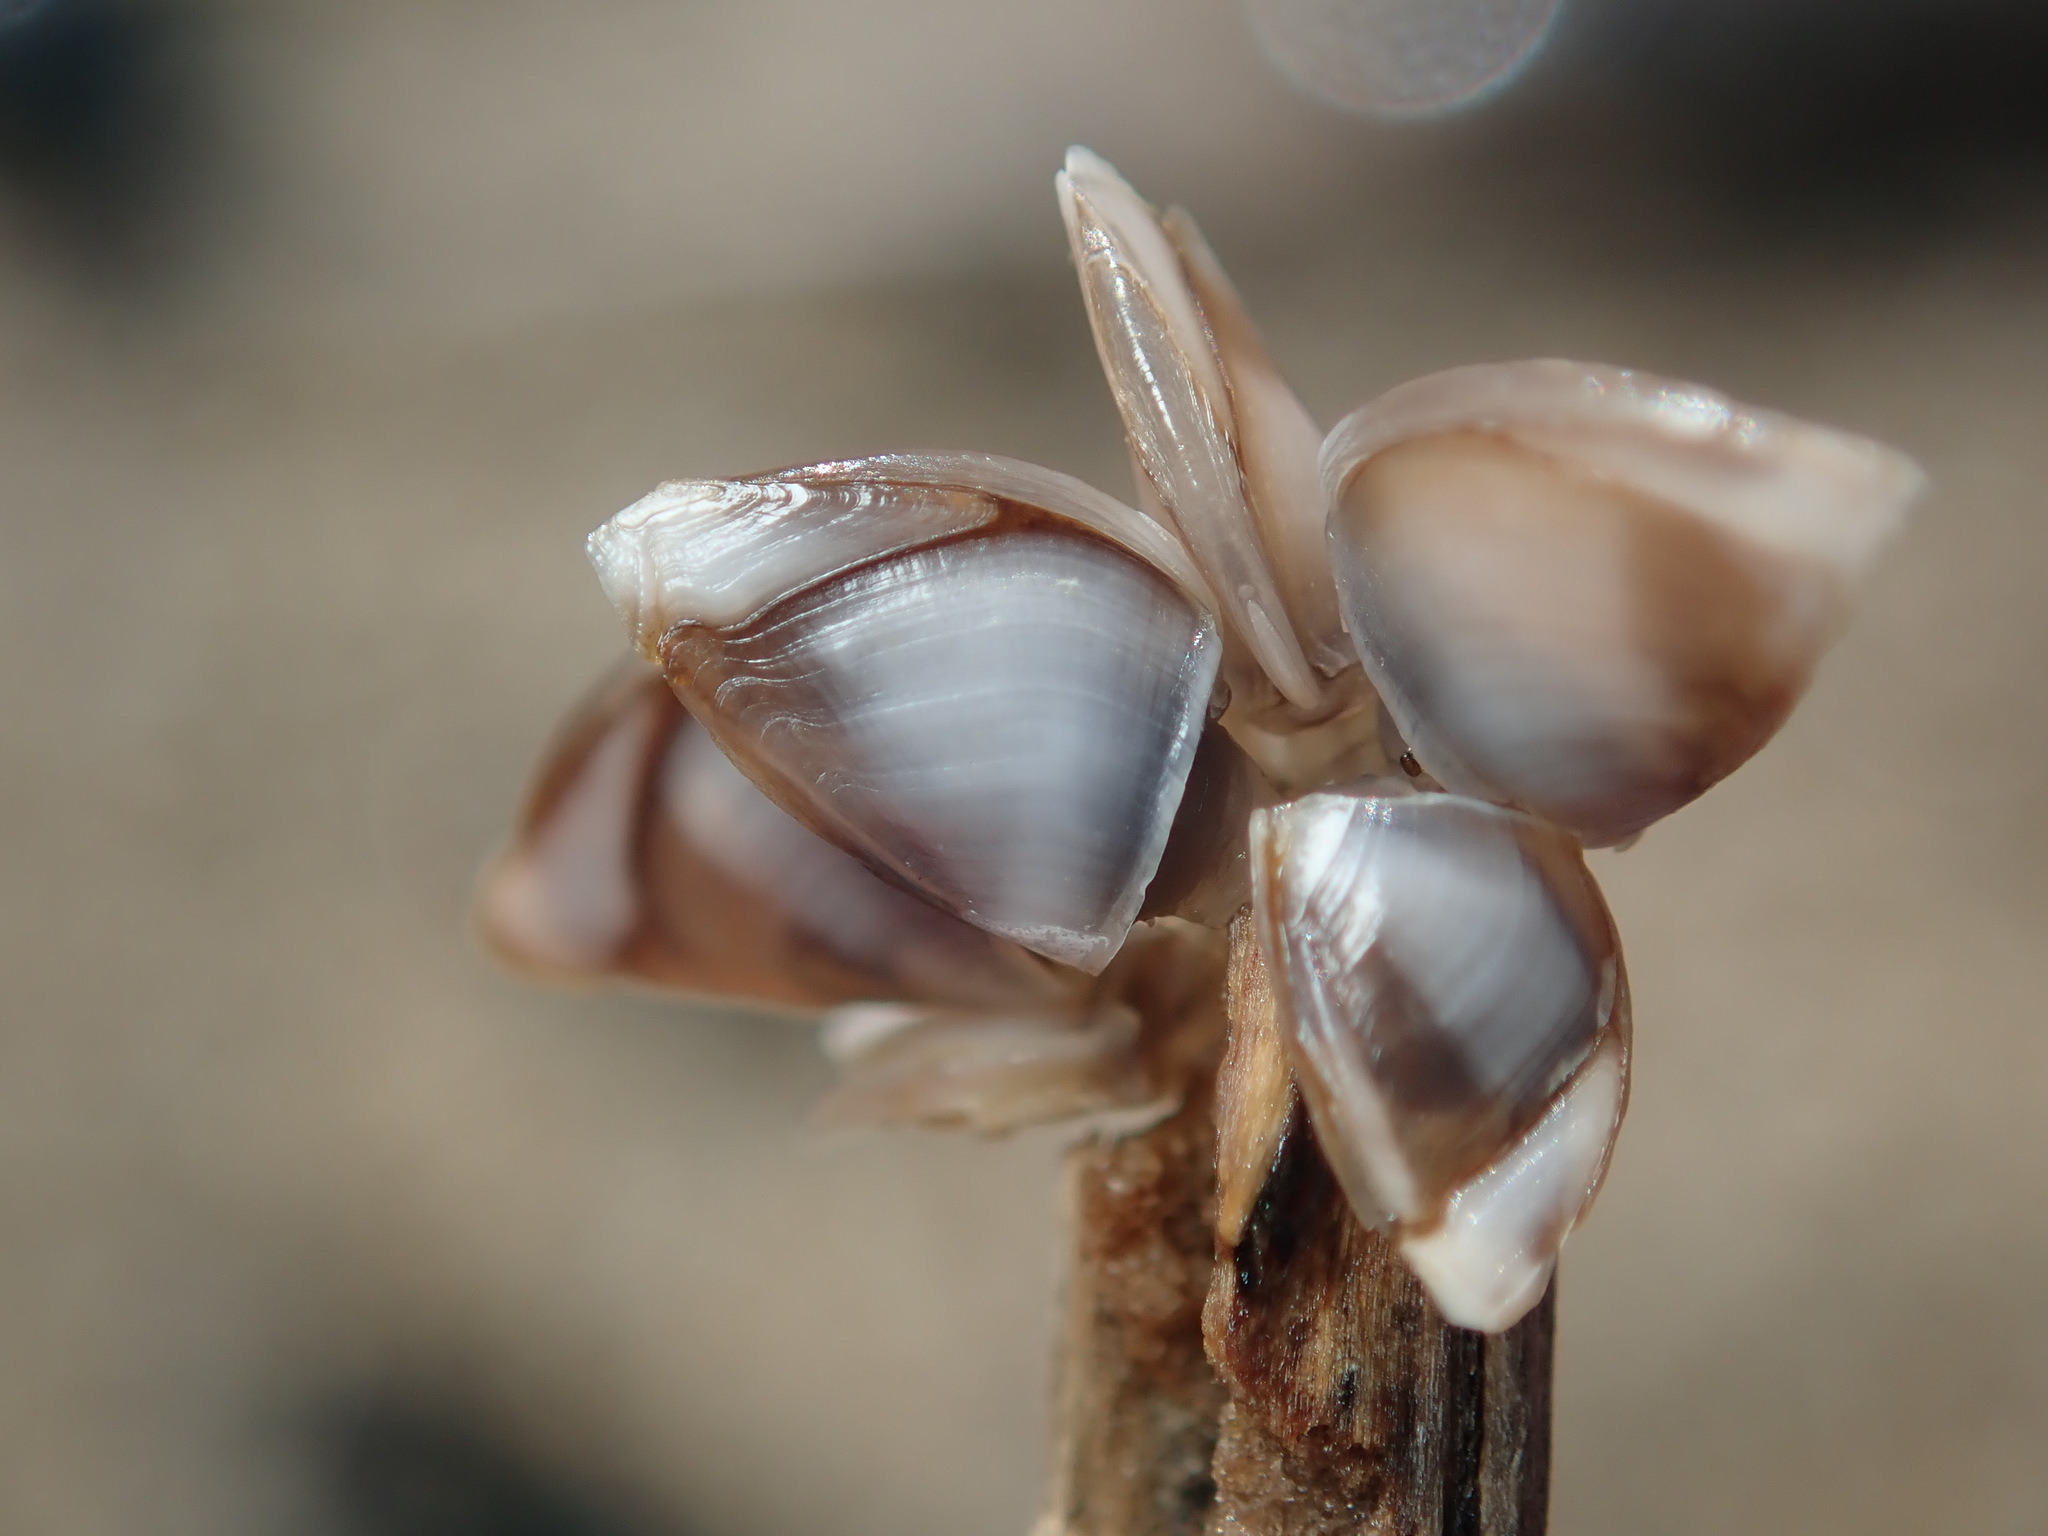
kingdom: Animalia
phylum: Arthropoda
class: Maxillopoda
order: Pedunculata
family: Lepadidae
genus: Lepas
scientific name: Lepas pacifica
